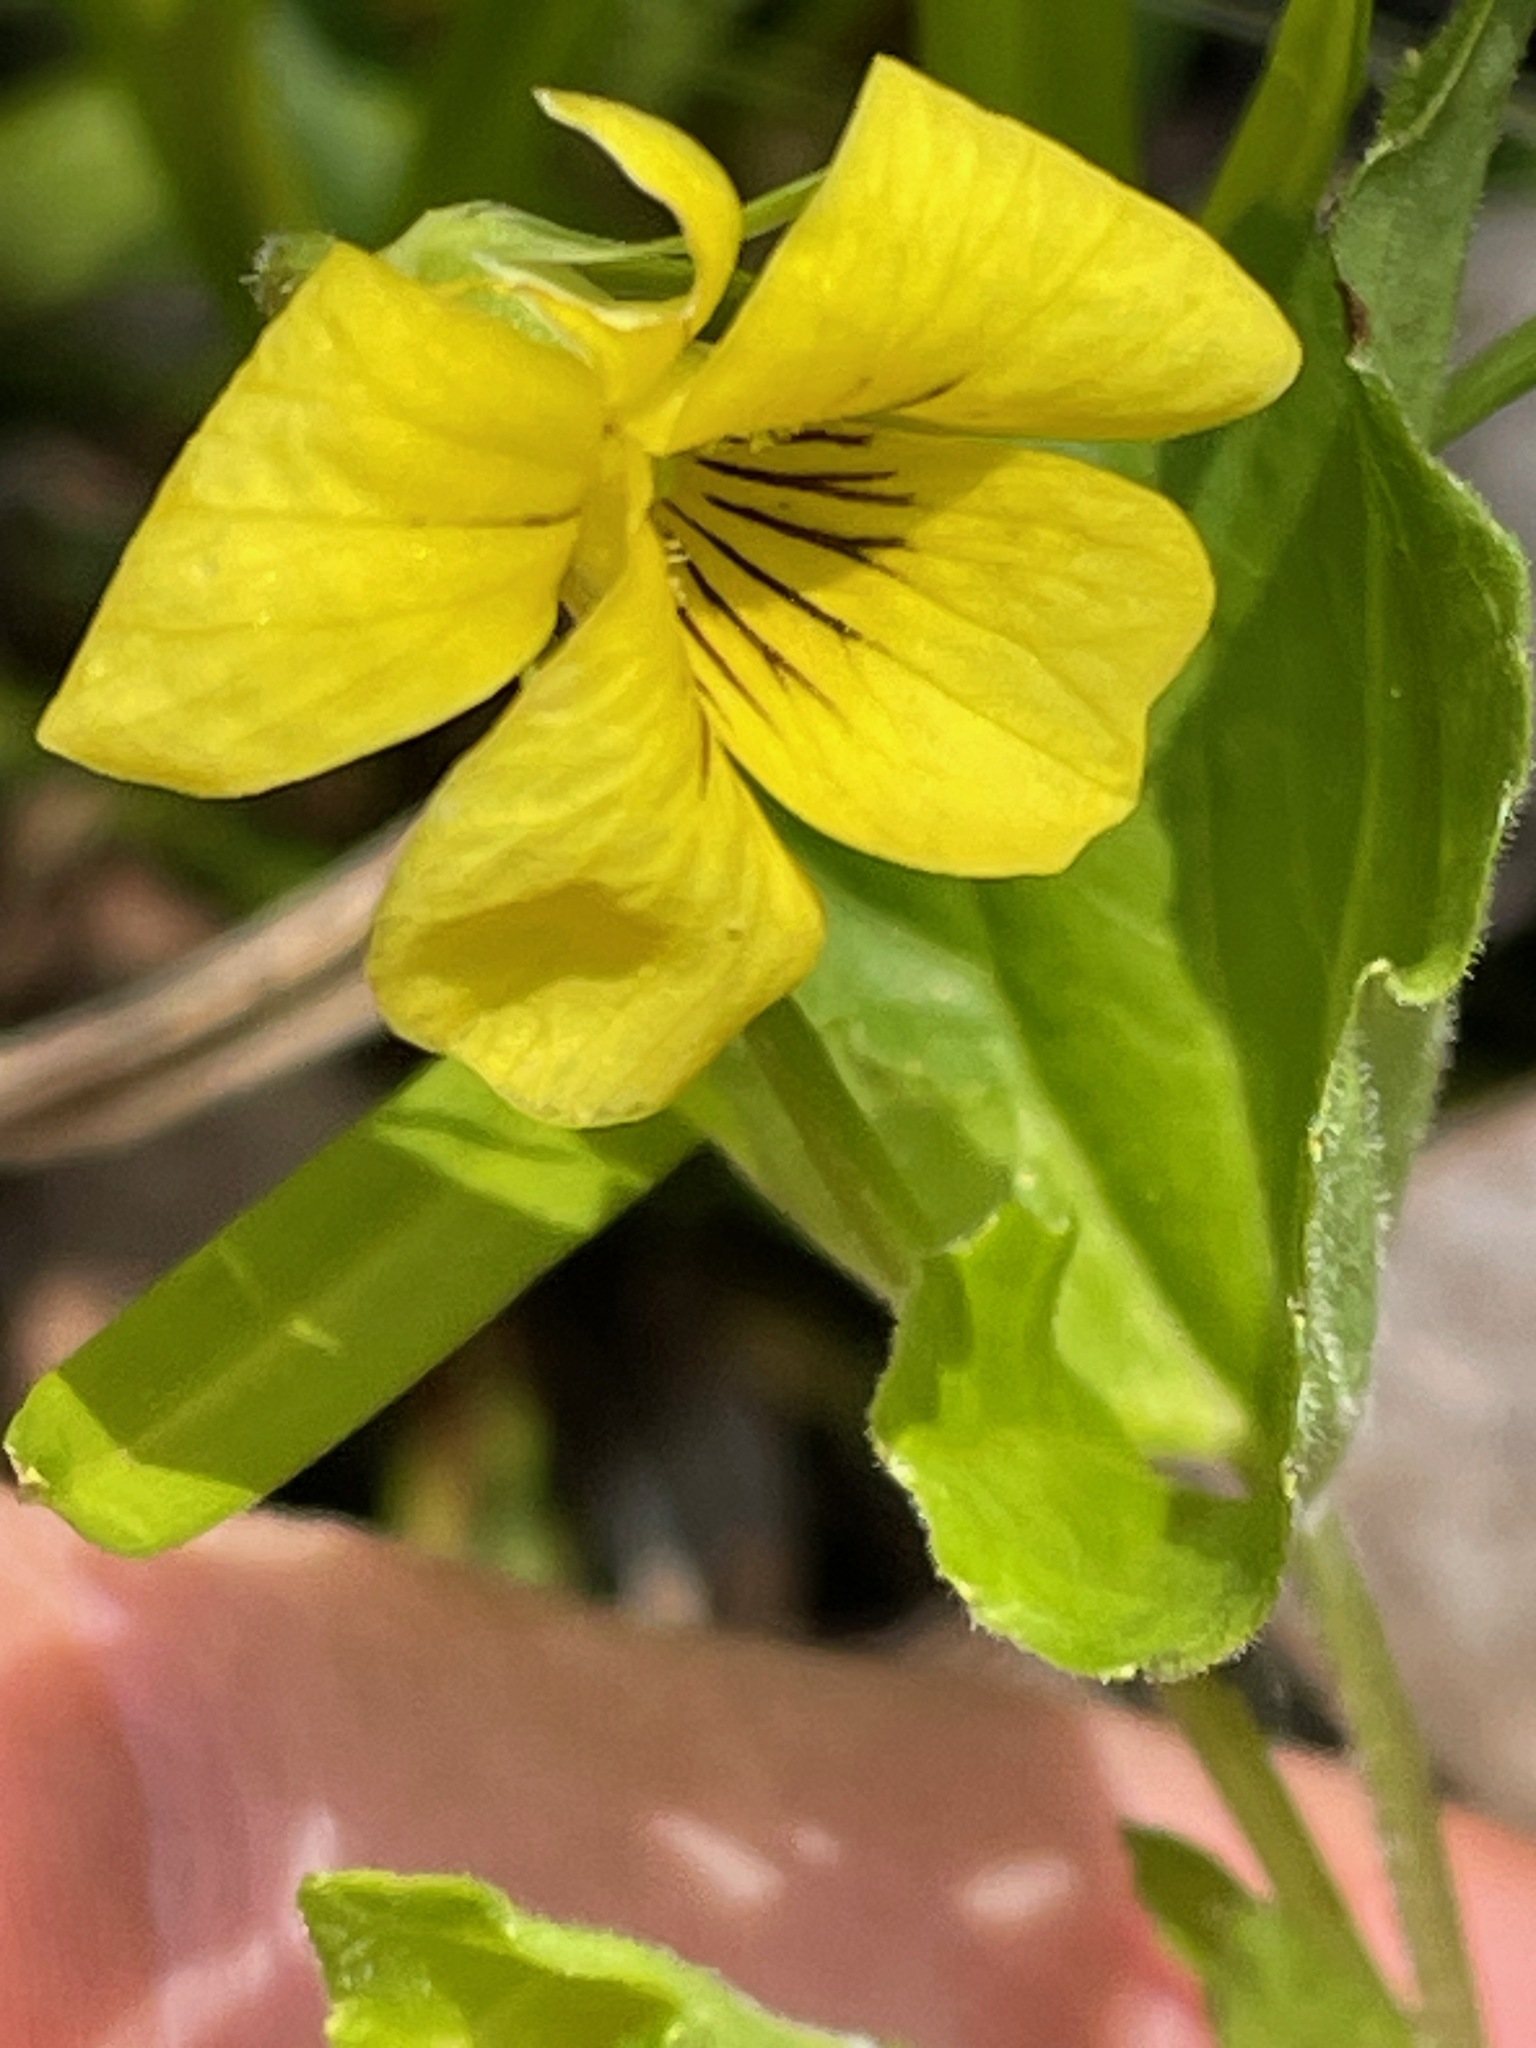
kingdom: Plantae
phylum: Tracheophyta
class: Magnoliopsida
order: Malpighiales
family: Violaceae
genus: Viola
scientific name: Viola eriocarpa
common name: Smooth yellow violet
